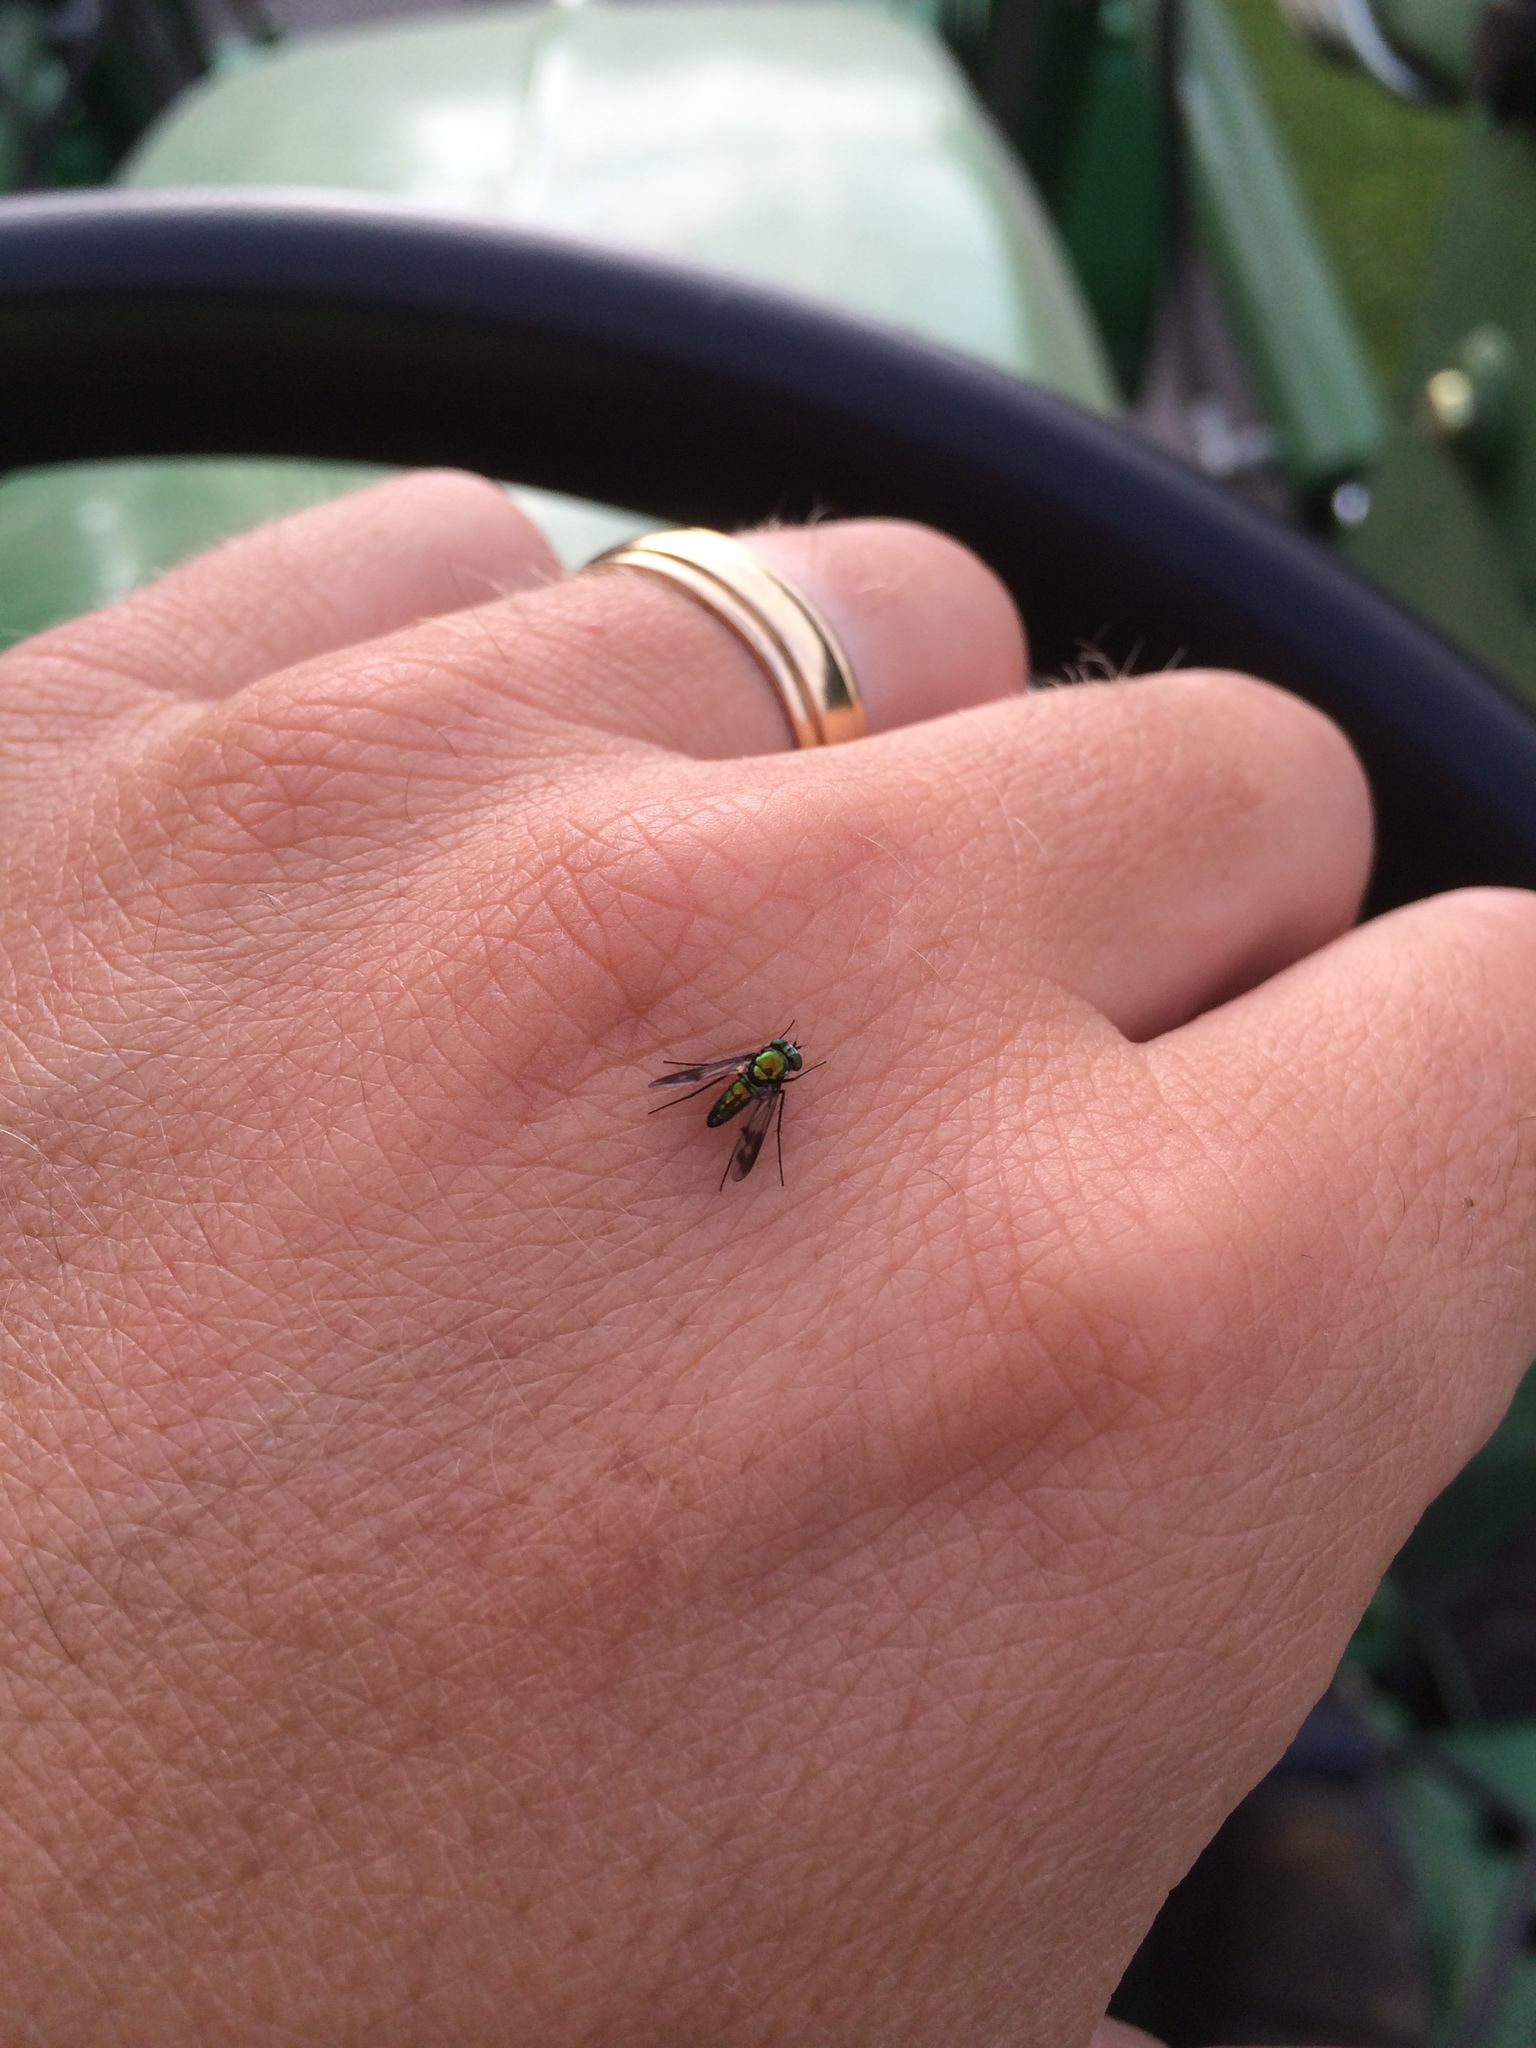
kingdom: Animalia
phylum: Arthropoda
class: Insecta
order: Diptera
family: Dolichopodidae
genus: Condylostylus
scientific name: Condylostylus patibulatus
